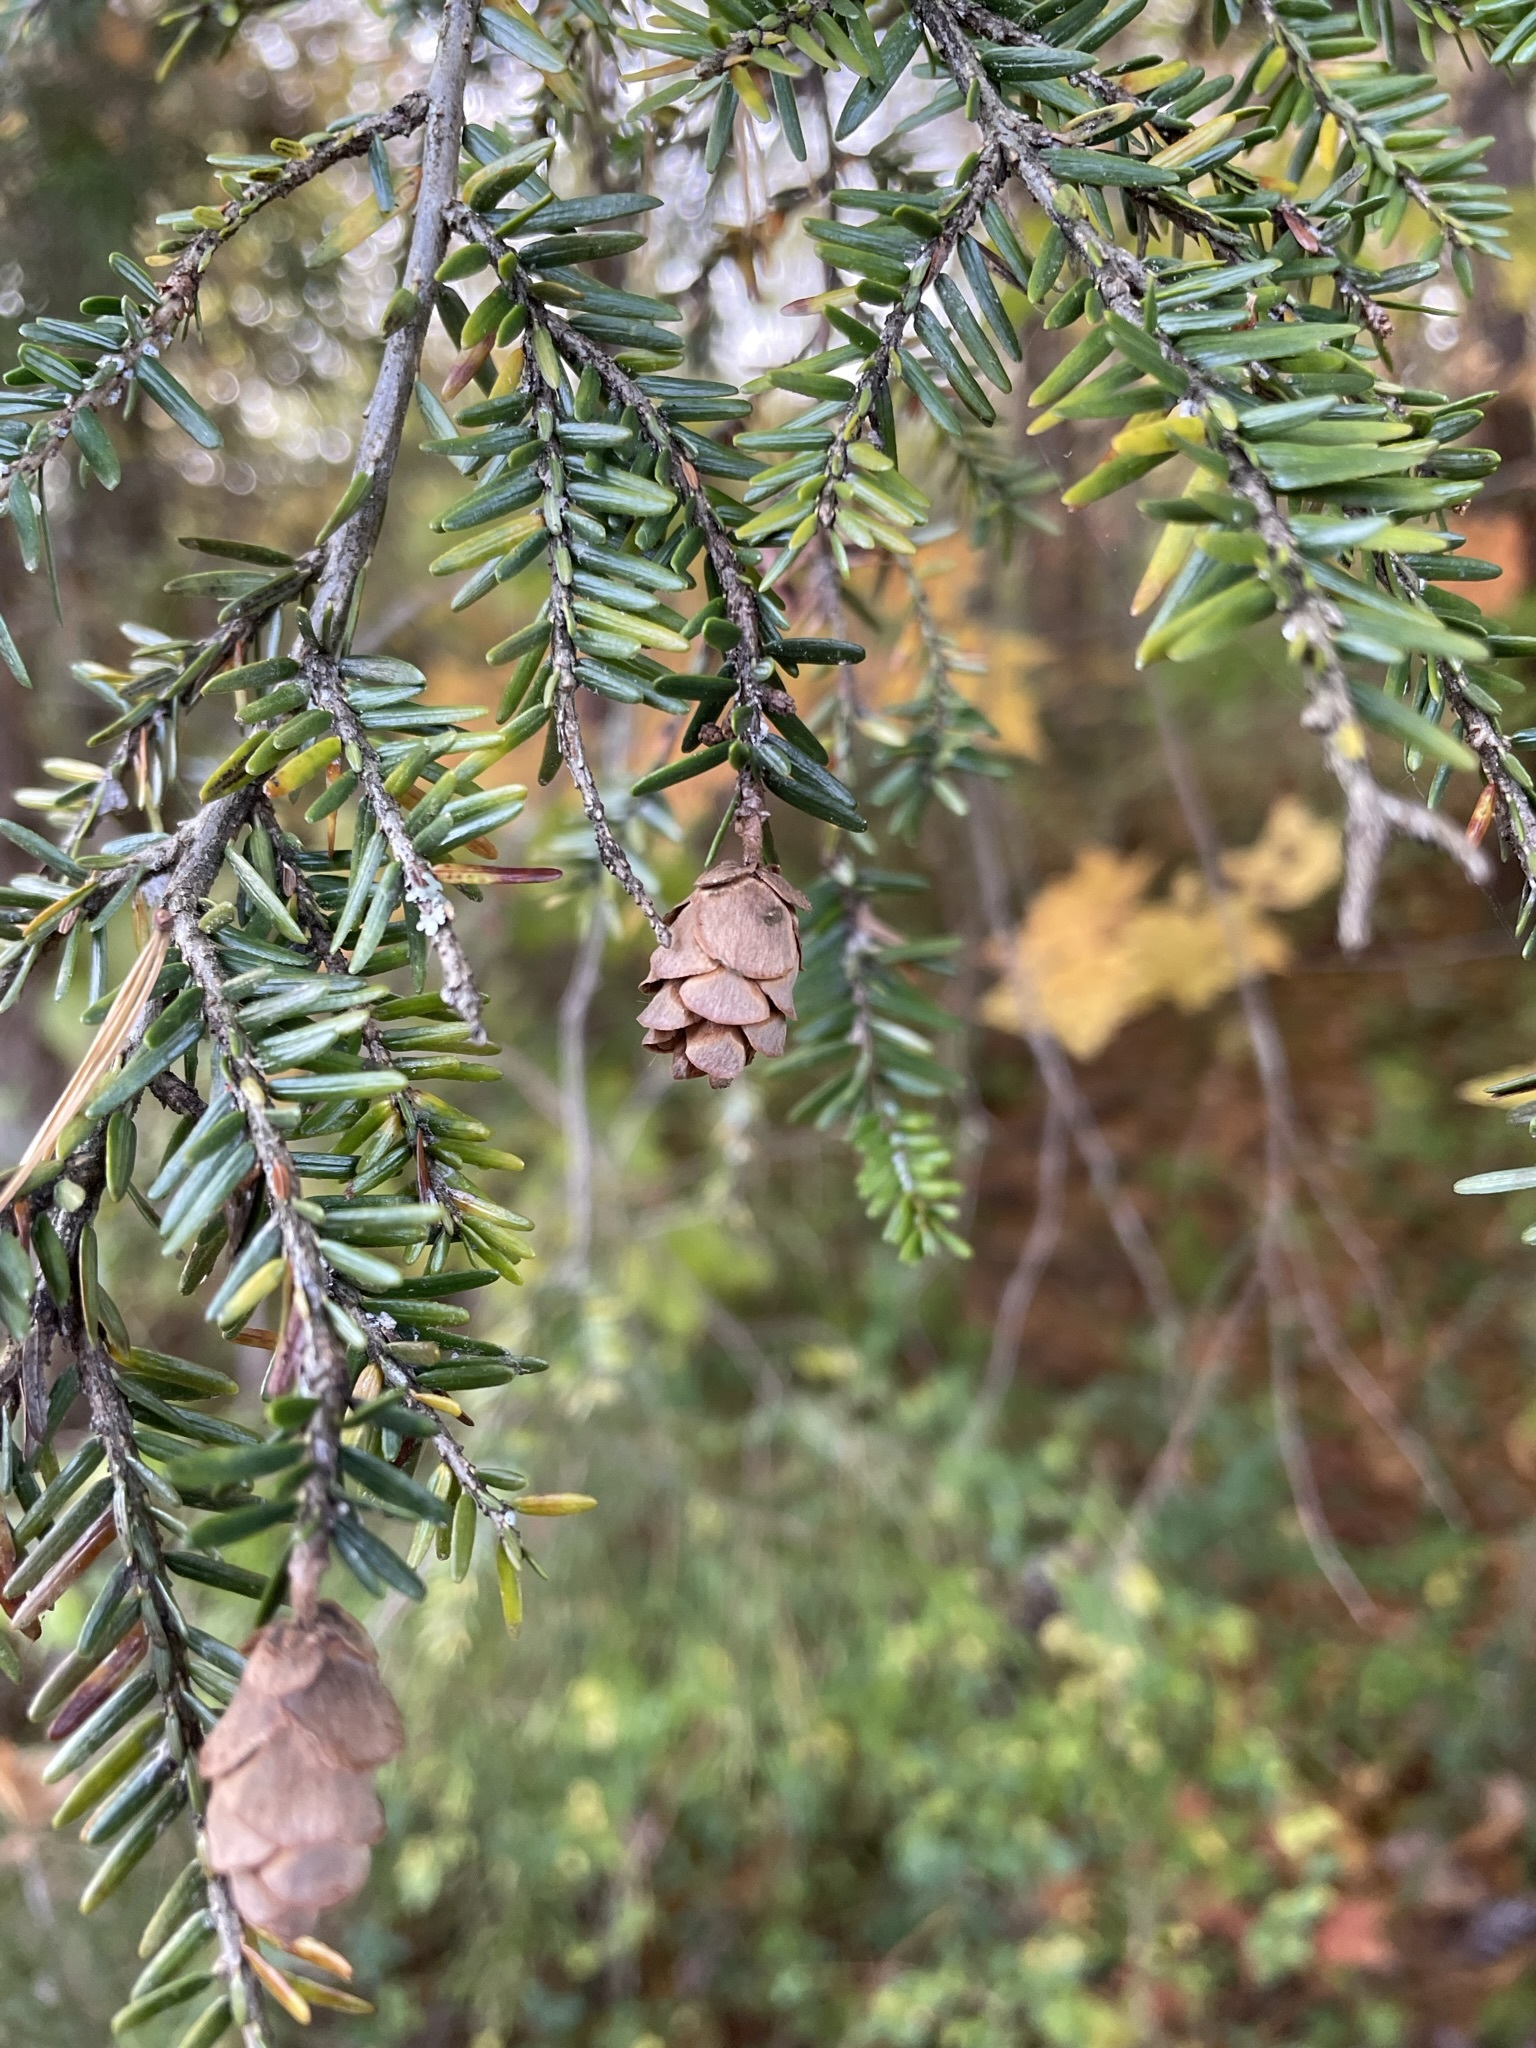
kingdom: Plantae
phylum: Tracheophyta
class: Pinopsida
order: Pinales
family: Pinaceae
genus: Tsuga
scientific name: Tsuga canadensis
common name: Eastern hemlock
